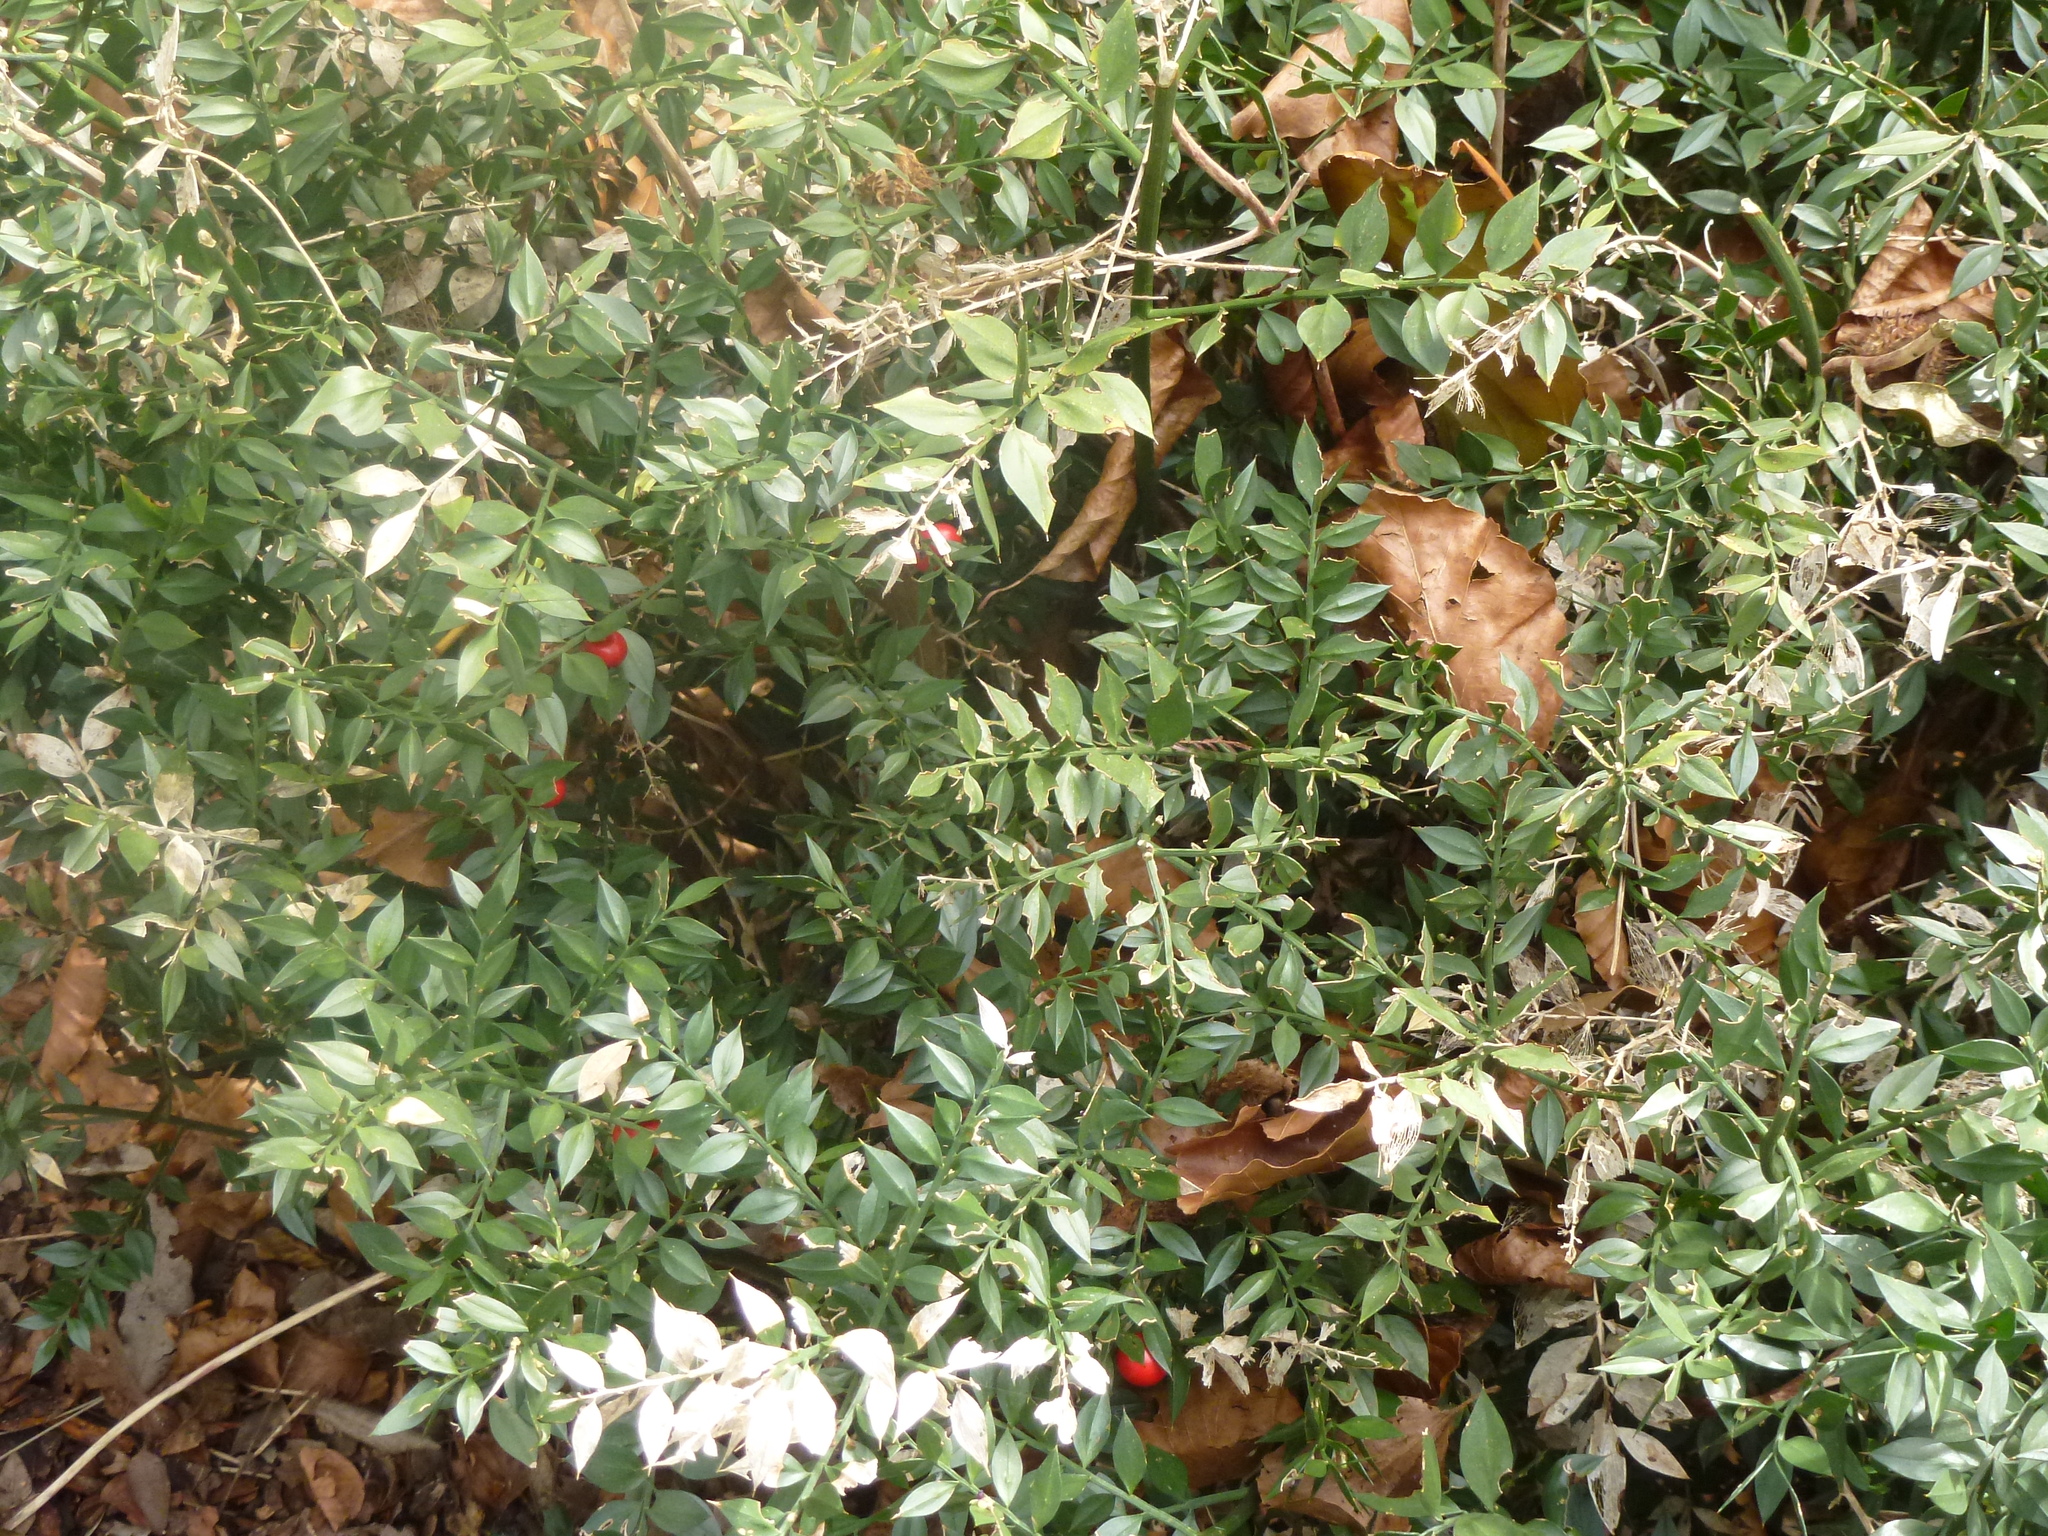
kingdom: Plantae
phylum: Tracheophyta
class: Liliopsida
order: Asparagales
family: Asparagaceae
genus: Ruscus
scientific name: Ruscus aculeatus
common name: Butcher's-broom
